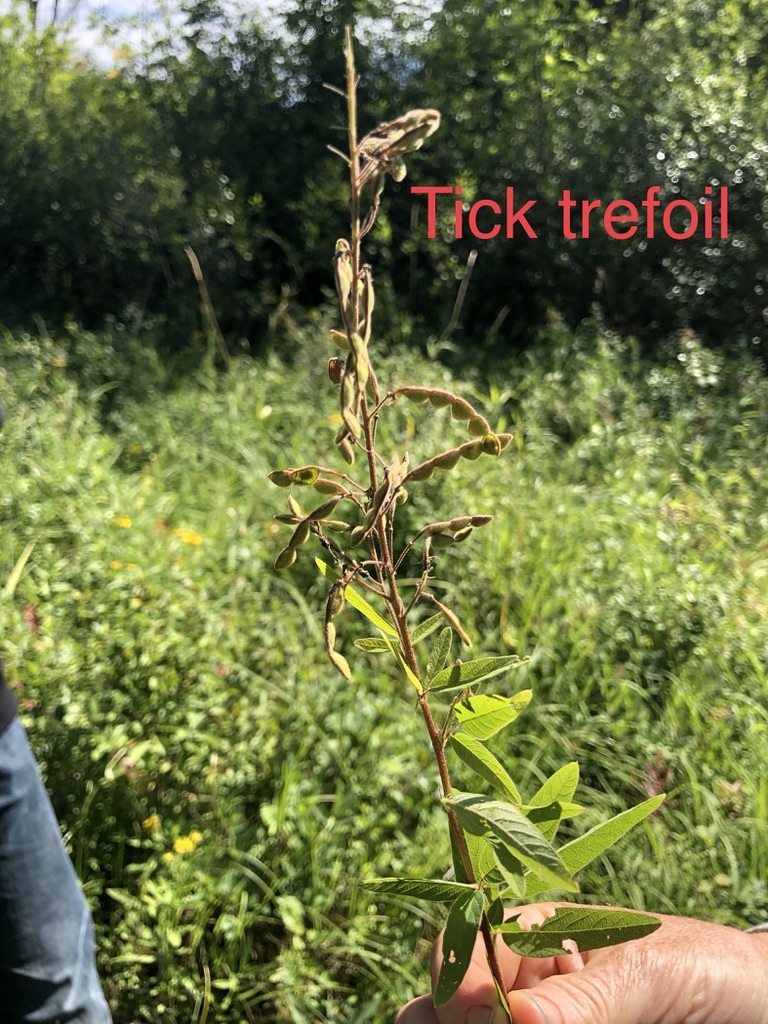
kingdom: Plantae
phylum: Tracheophyta
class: Magnoliopsida
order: Fabales
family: Fabaceae
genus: Desmodium
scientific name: Desmodium canadense
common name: Canada tick-trefoil
